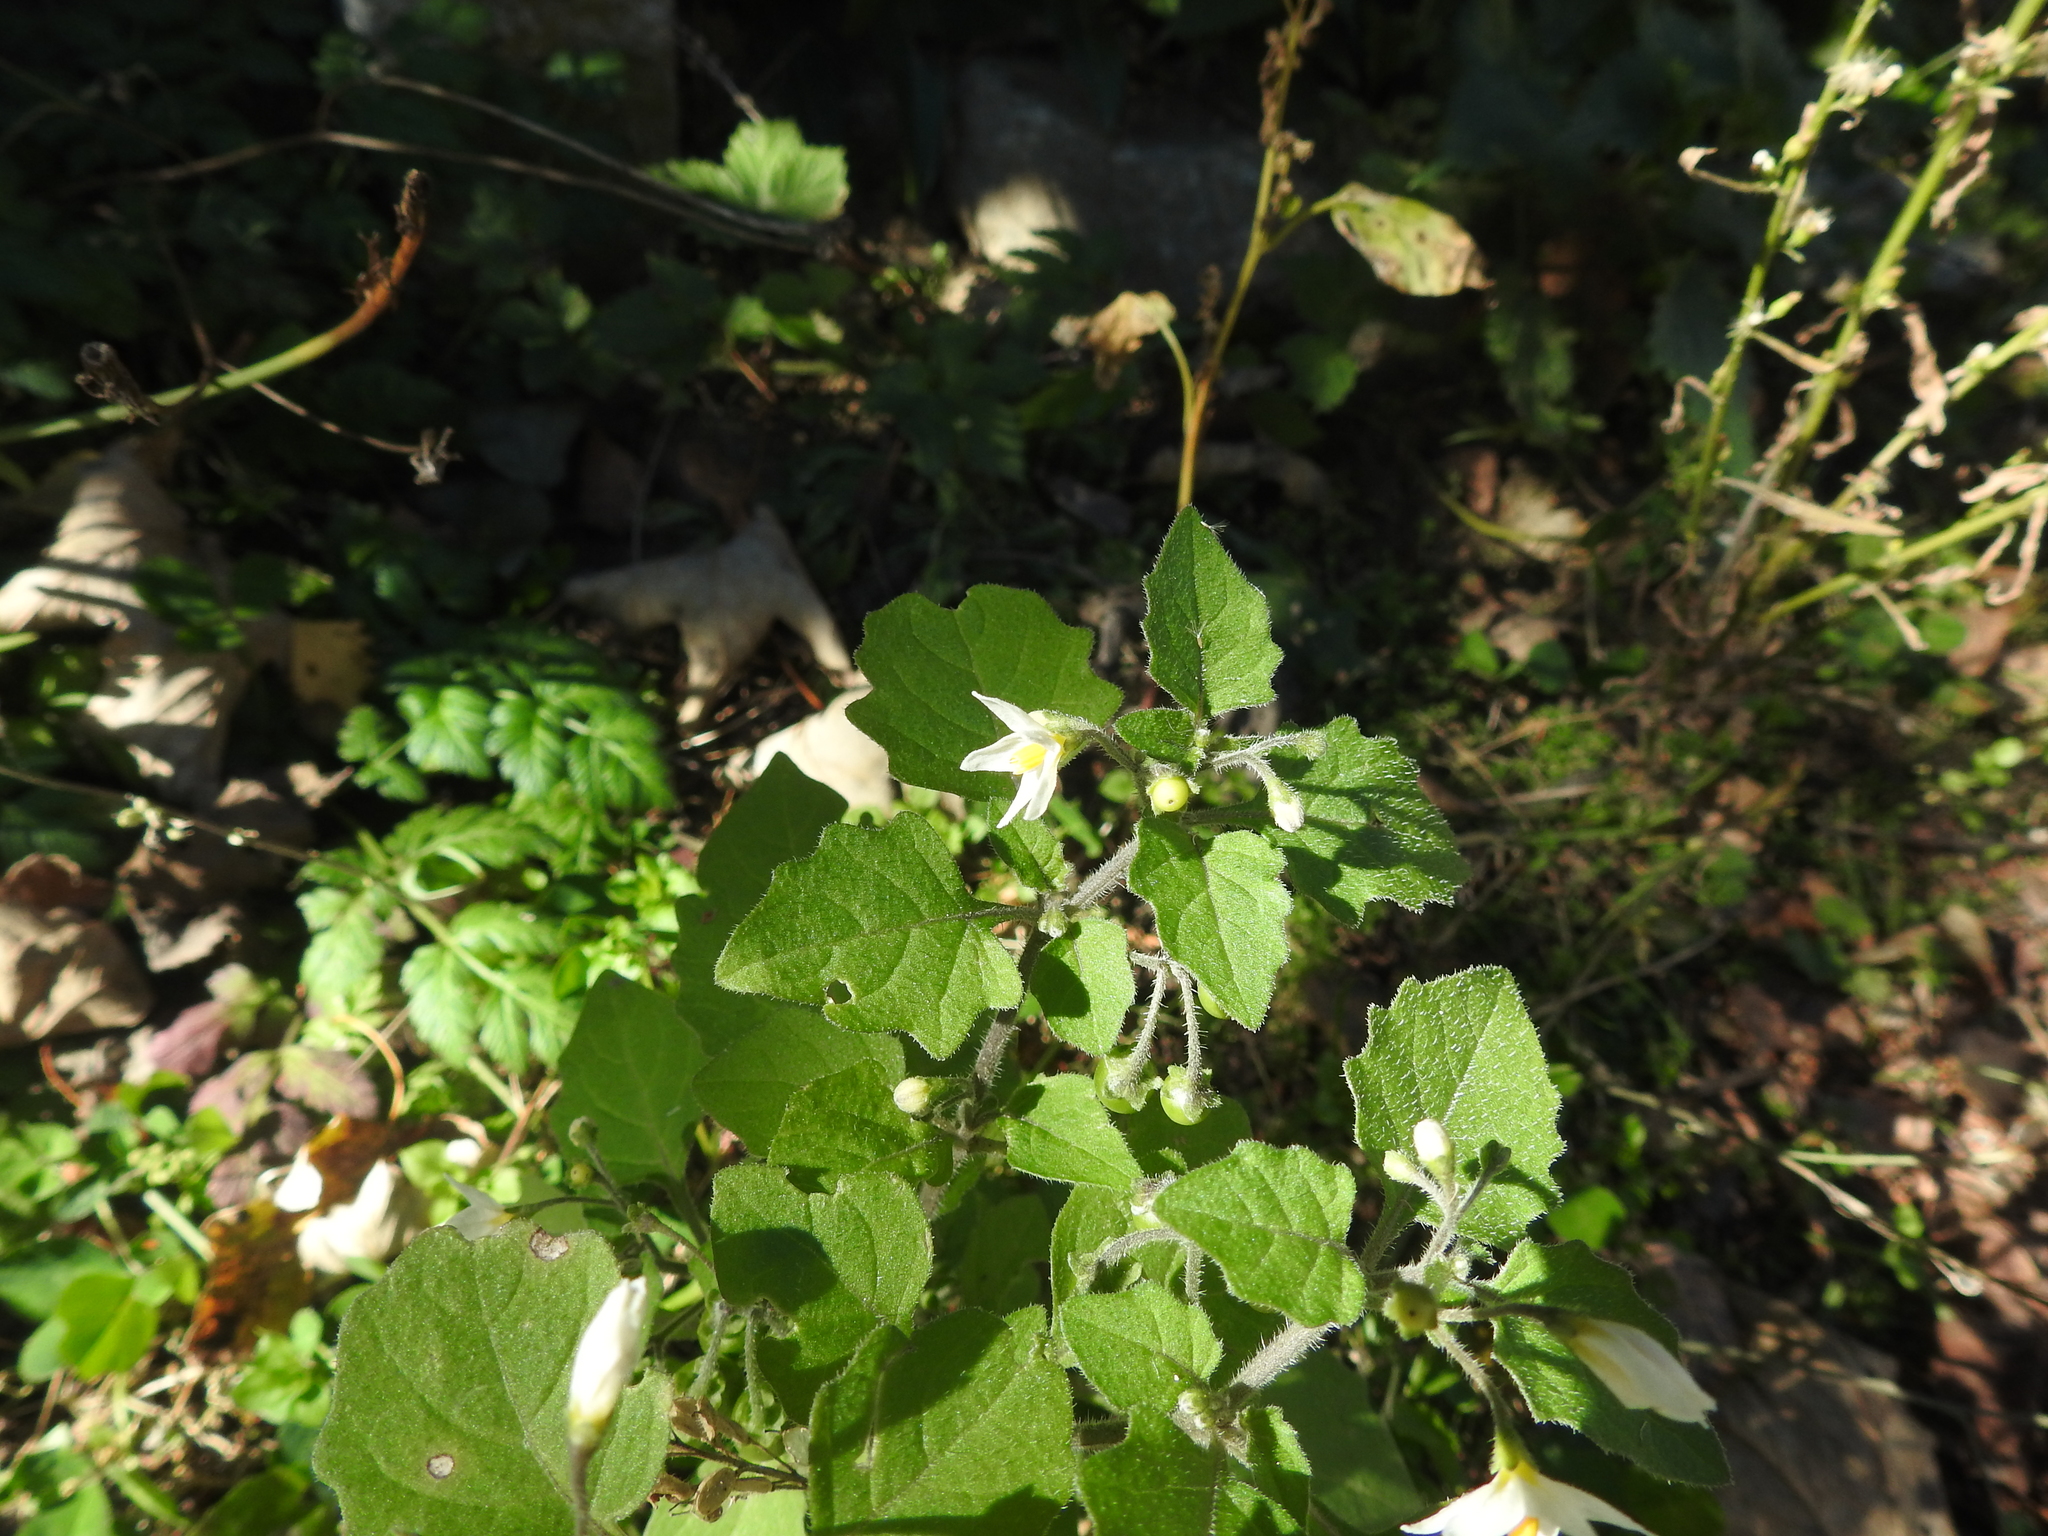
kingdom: Plantae
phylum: Tracheophyta
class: Magnoliopsida
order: Solanales
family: Solanaceae
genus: Solanum
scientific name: Solanum nigrum
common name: Black nightshade
